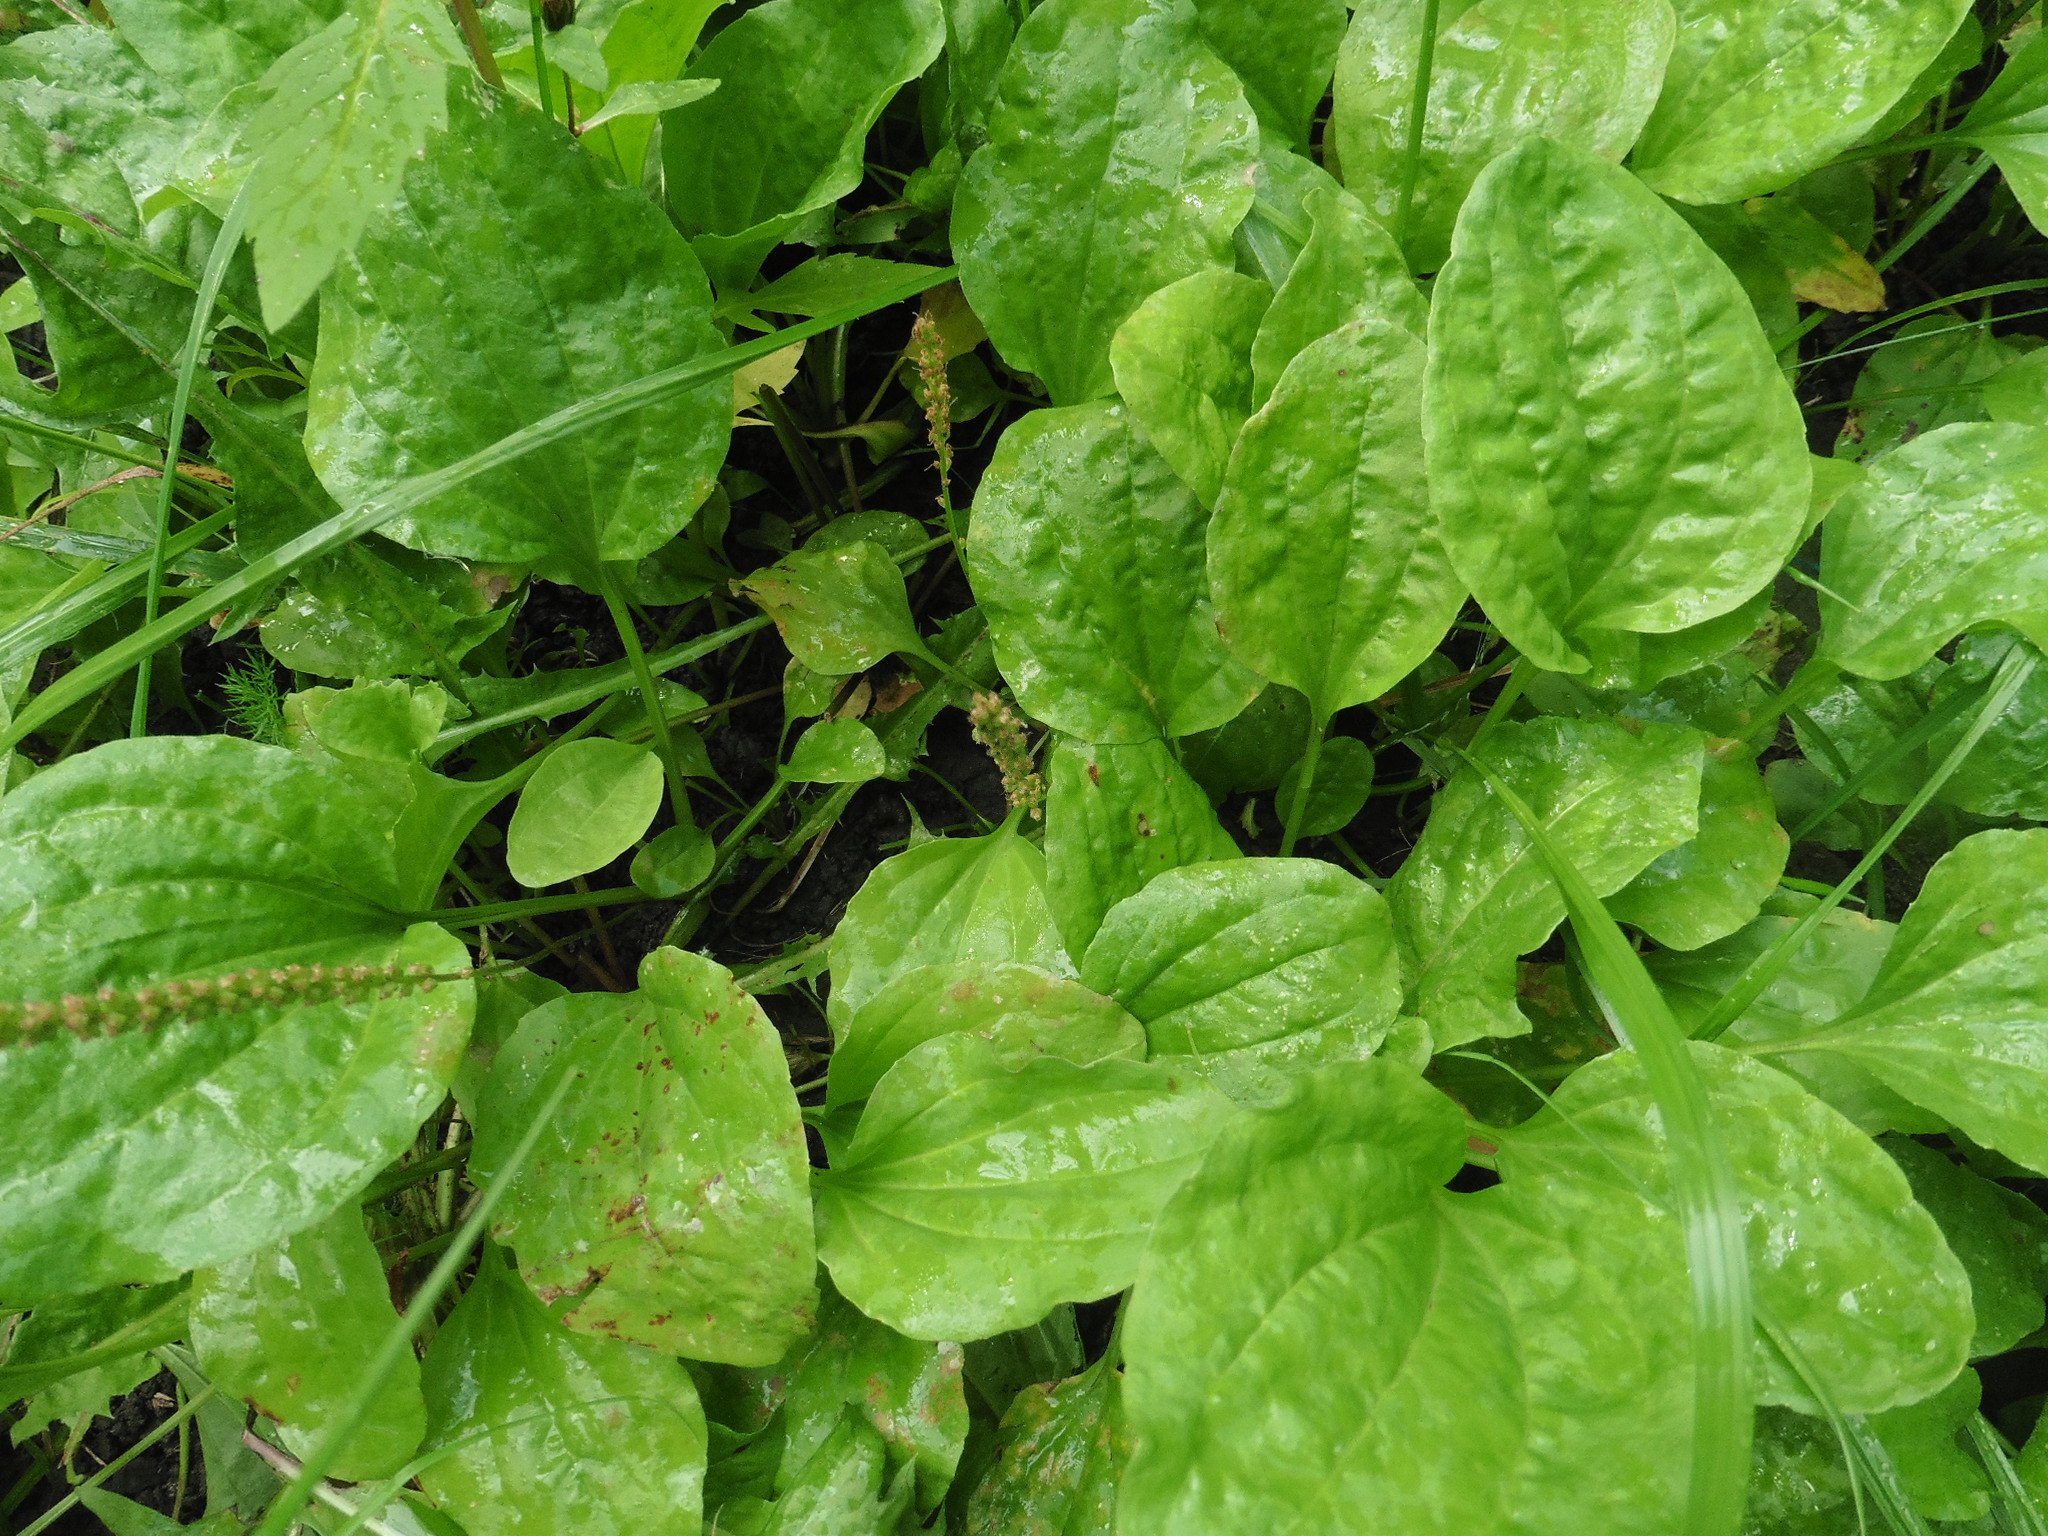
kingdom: Plantae
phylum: Tracheophyta
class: Magnoliopsida
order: Lamiales
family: Plantaginaceae
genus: Plantago
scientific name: Plantago major
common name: Common plantain
